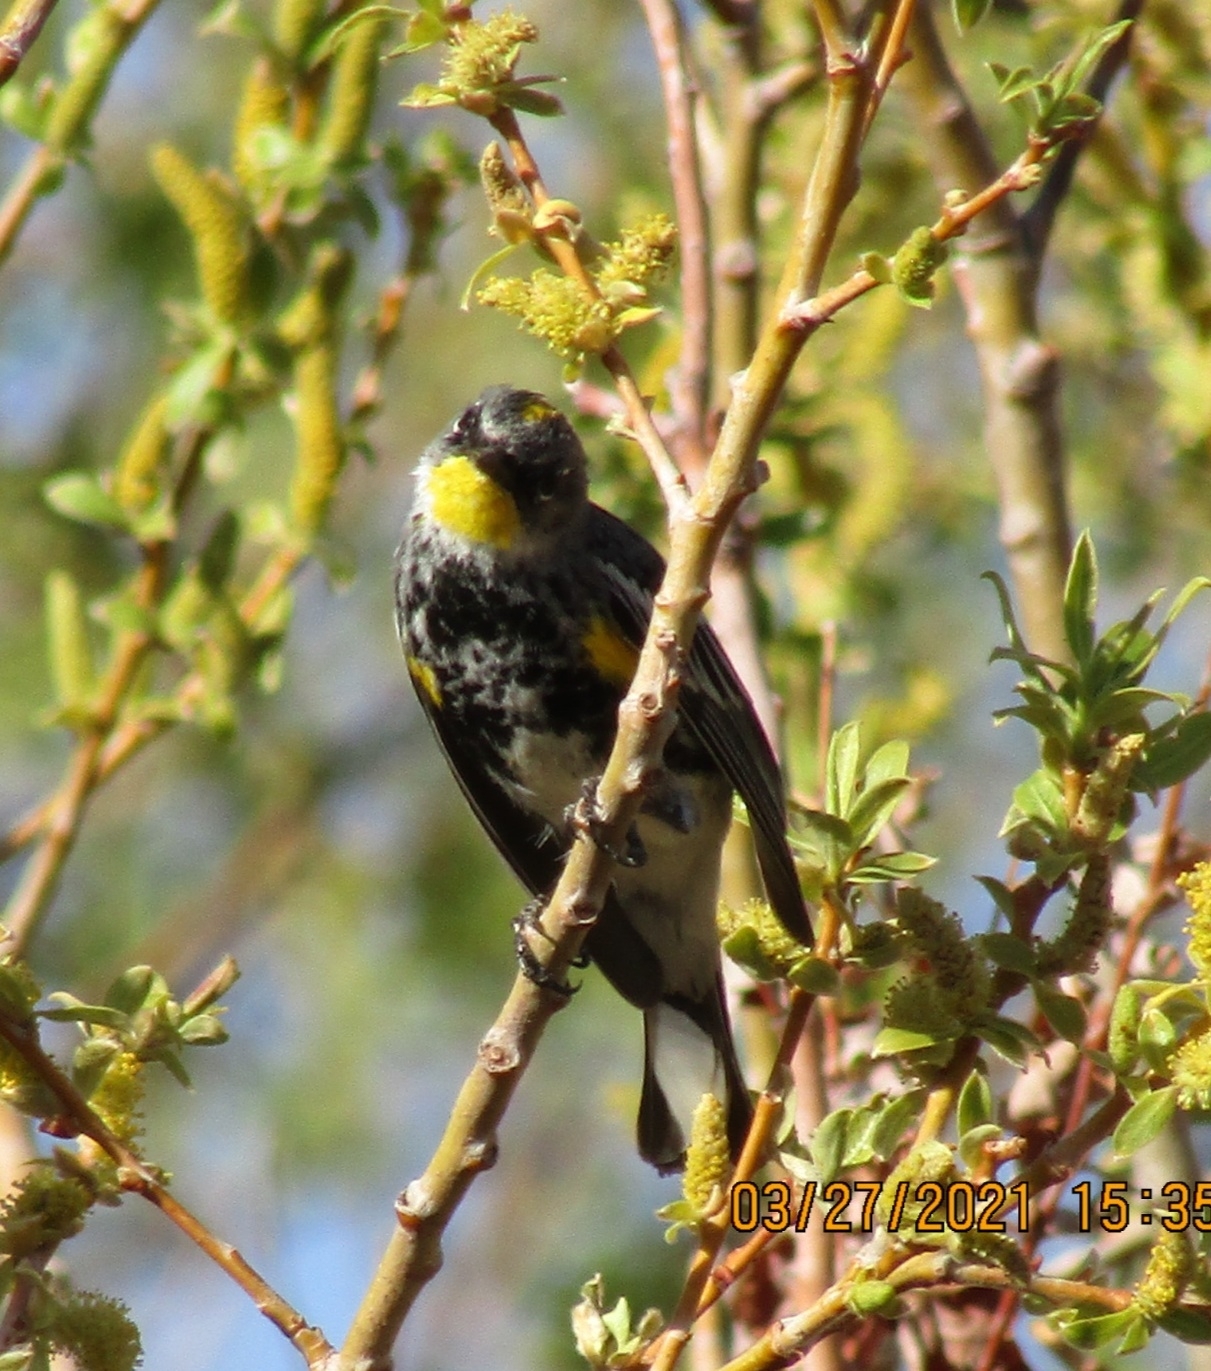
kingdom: Animalia
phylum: Chordata
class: Aves
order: Passeriformes
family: Parulidae
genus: Setophaga
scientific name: Setophaga coronata
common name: Myrtle warbler
